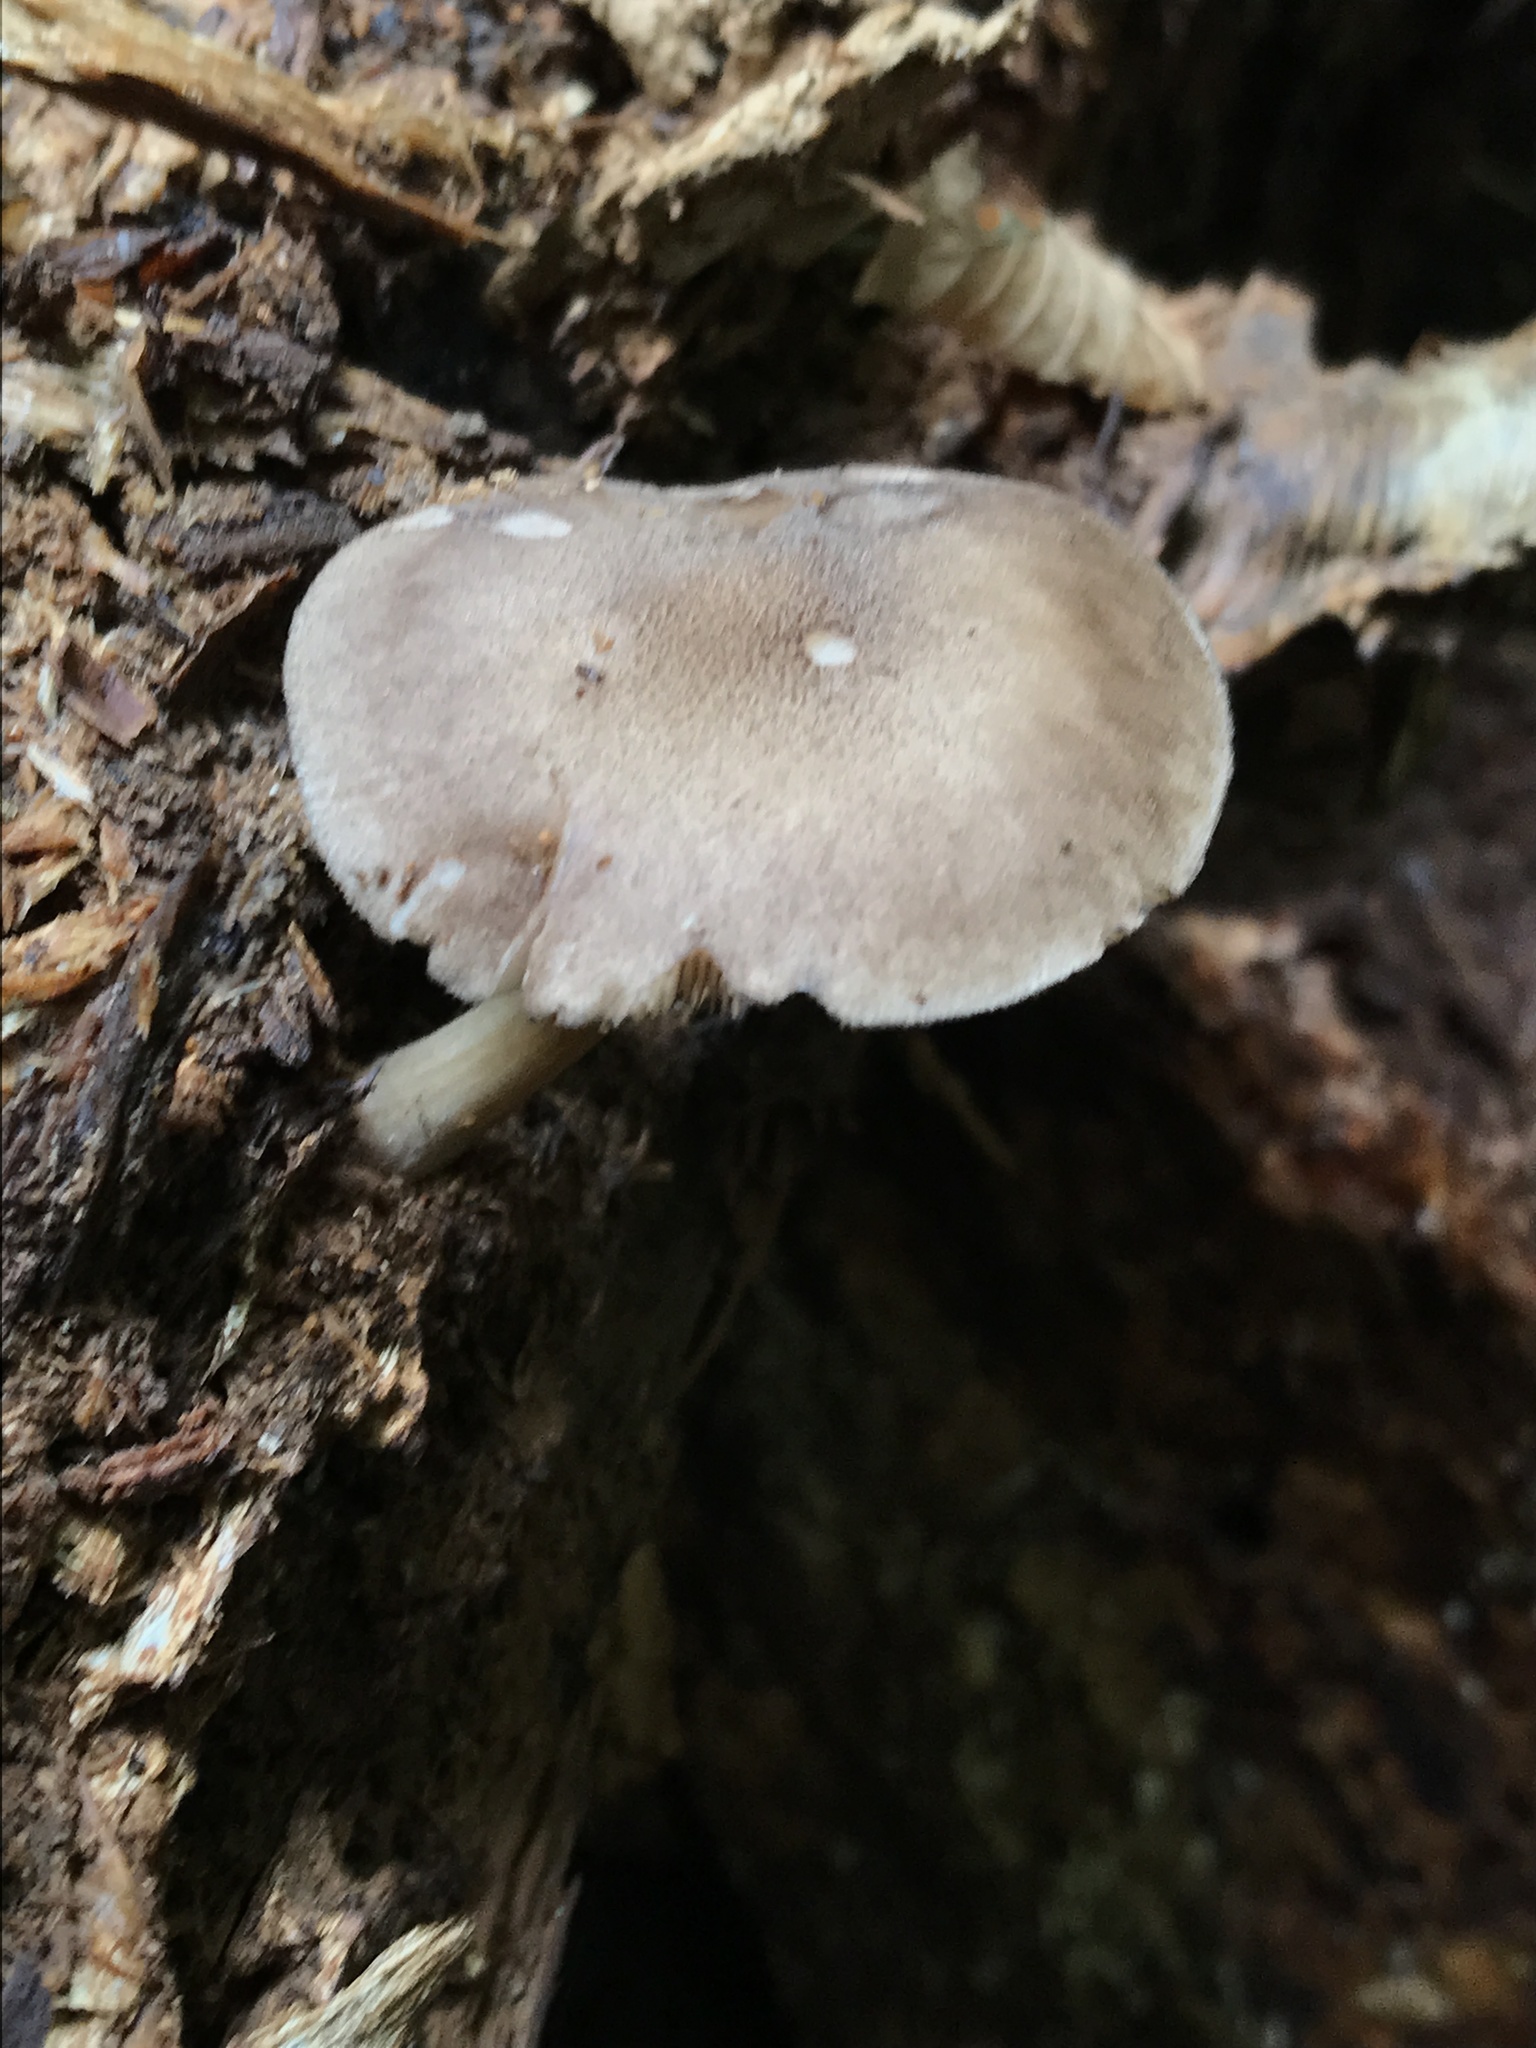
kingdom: Fungi
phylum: Basidiomycota
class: Agaricomycetes
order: Agaricales
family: Pluteaceae
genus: Pluteus
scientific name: Pluteus atromarginatus
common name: Blackedged shield
